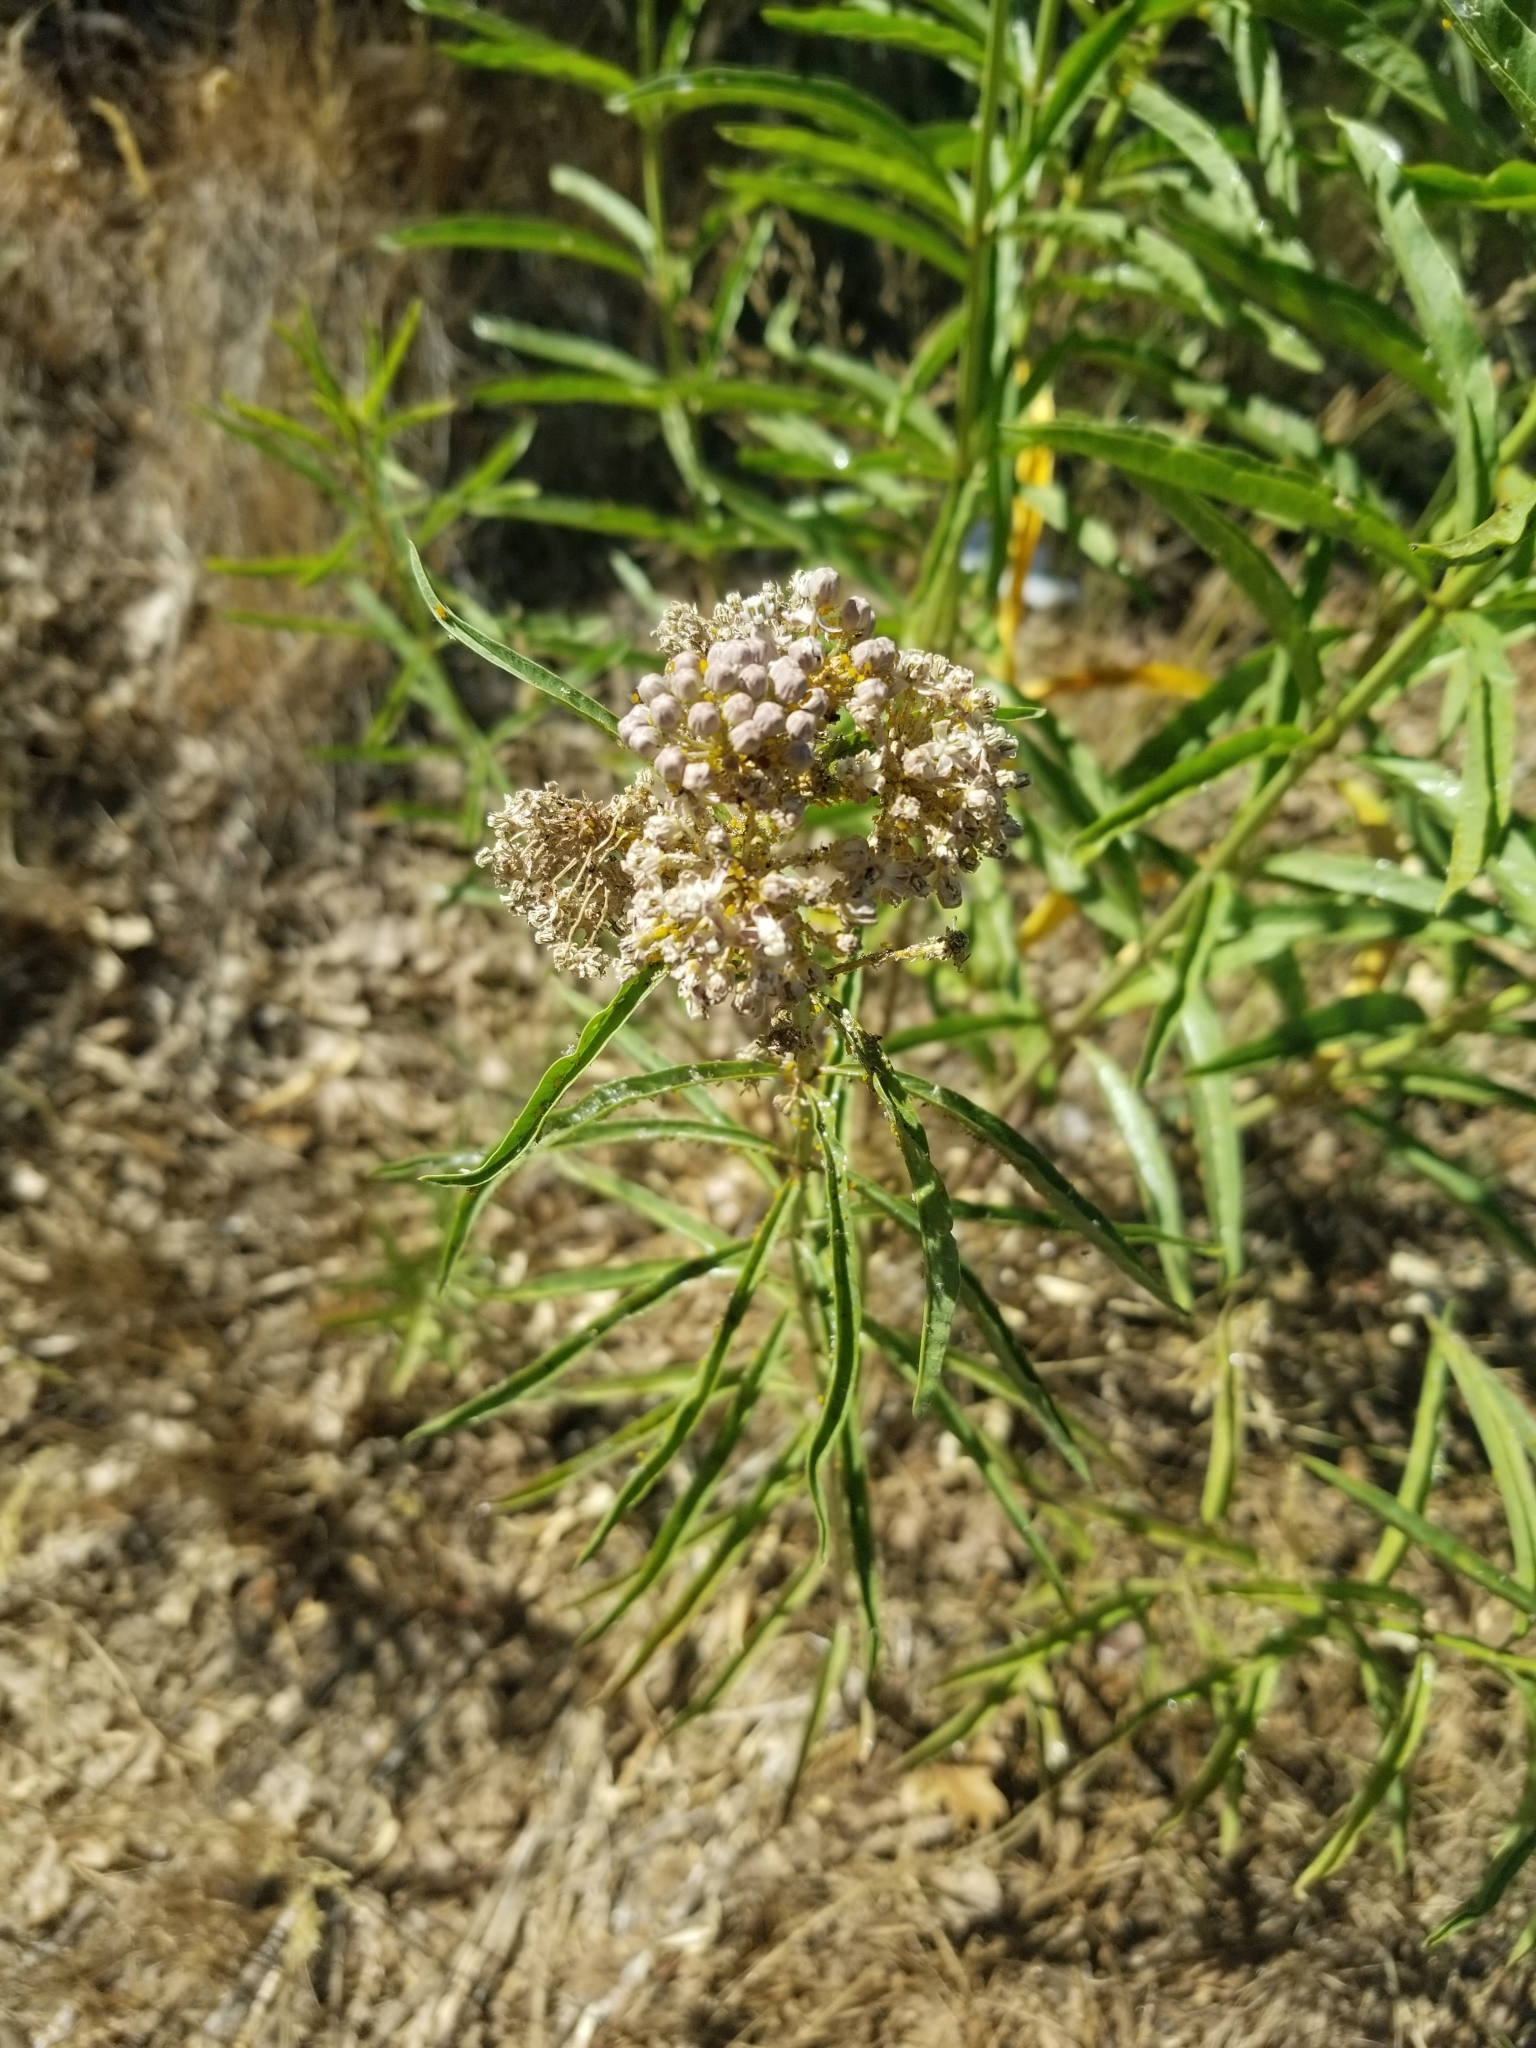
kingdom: Plantae
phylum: Tracheophyta
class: Magnoliopsida
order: Gentianales
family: Apocynaceae
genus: Asclepias
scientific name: Asclepias fascicularis
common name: Mexican milkweed
